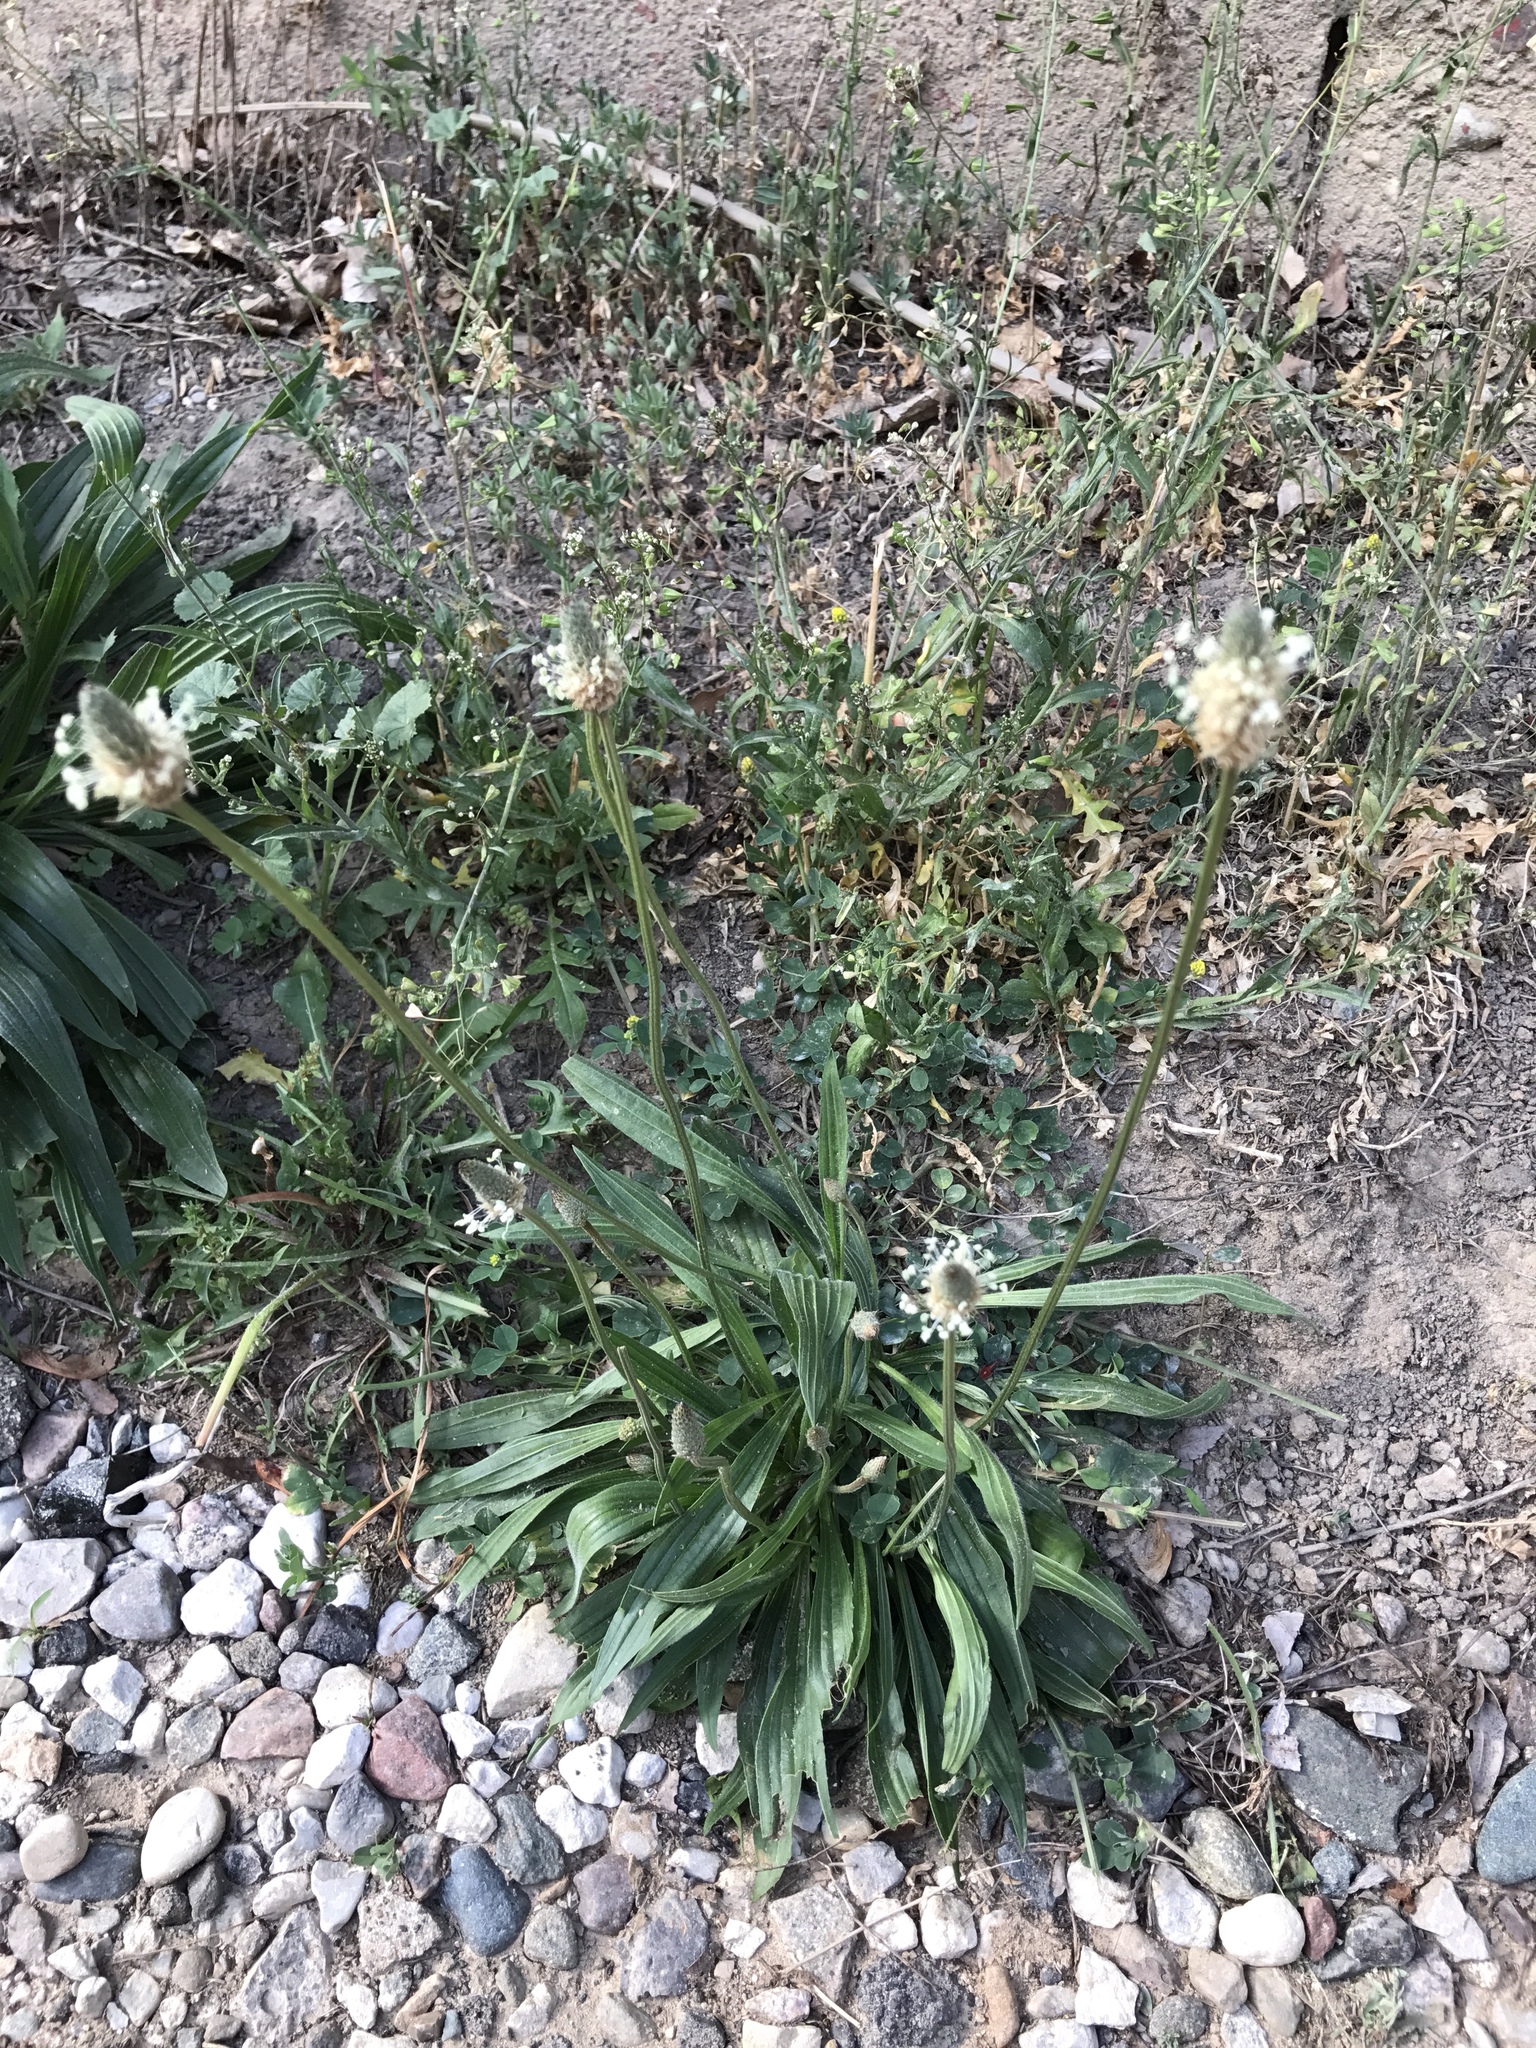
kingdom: Plantae
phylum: Tracheophyta
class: Magnoliopsida
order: Lamiales
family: Plantaginaceae
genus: Plantago
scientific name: Plantago lanceolata
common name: Ribwort plantain
